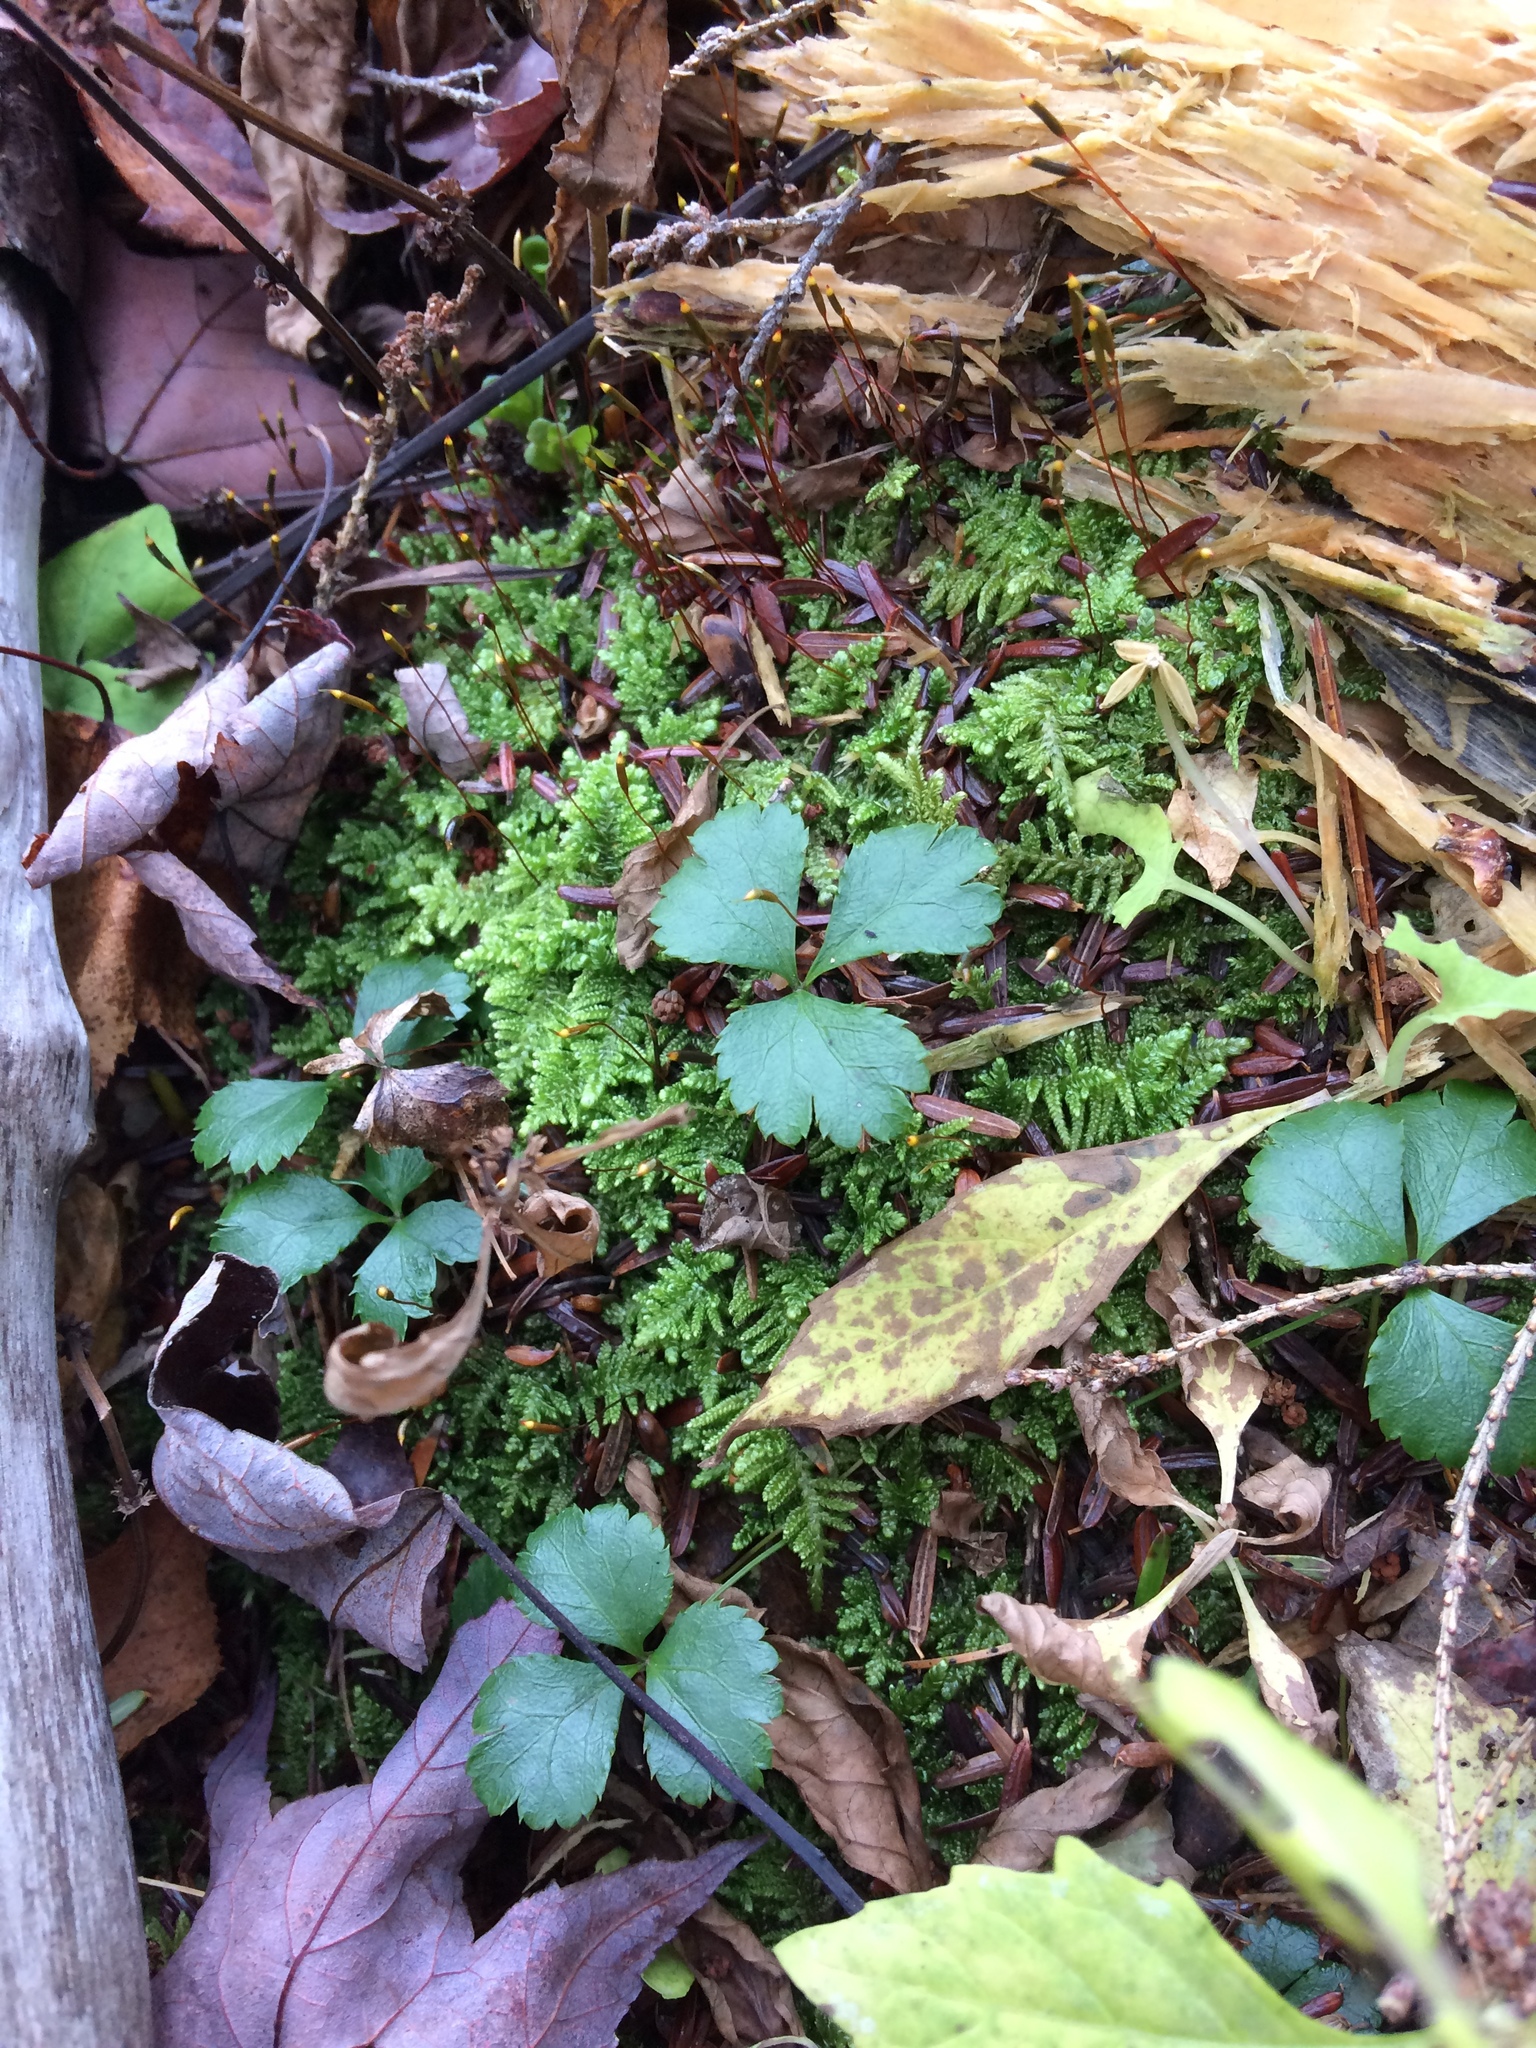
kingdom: Plantae
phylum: Tracheophyta
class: Magnoliopsida
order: Ranunculales
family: Ranunculaceae
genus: Coptis
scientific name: Coptis trifolia
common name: Canker-root
